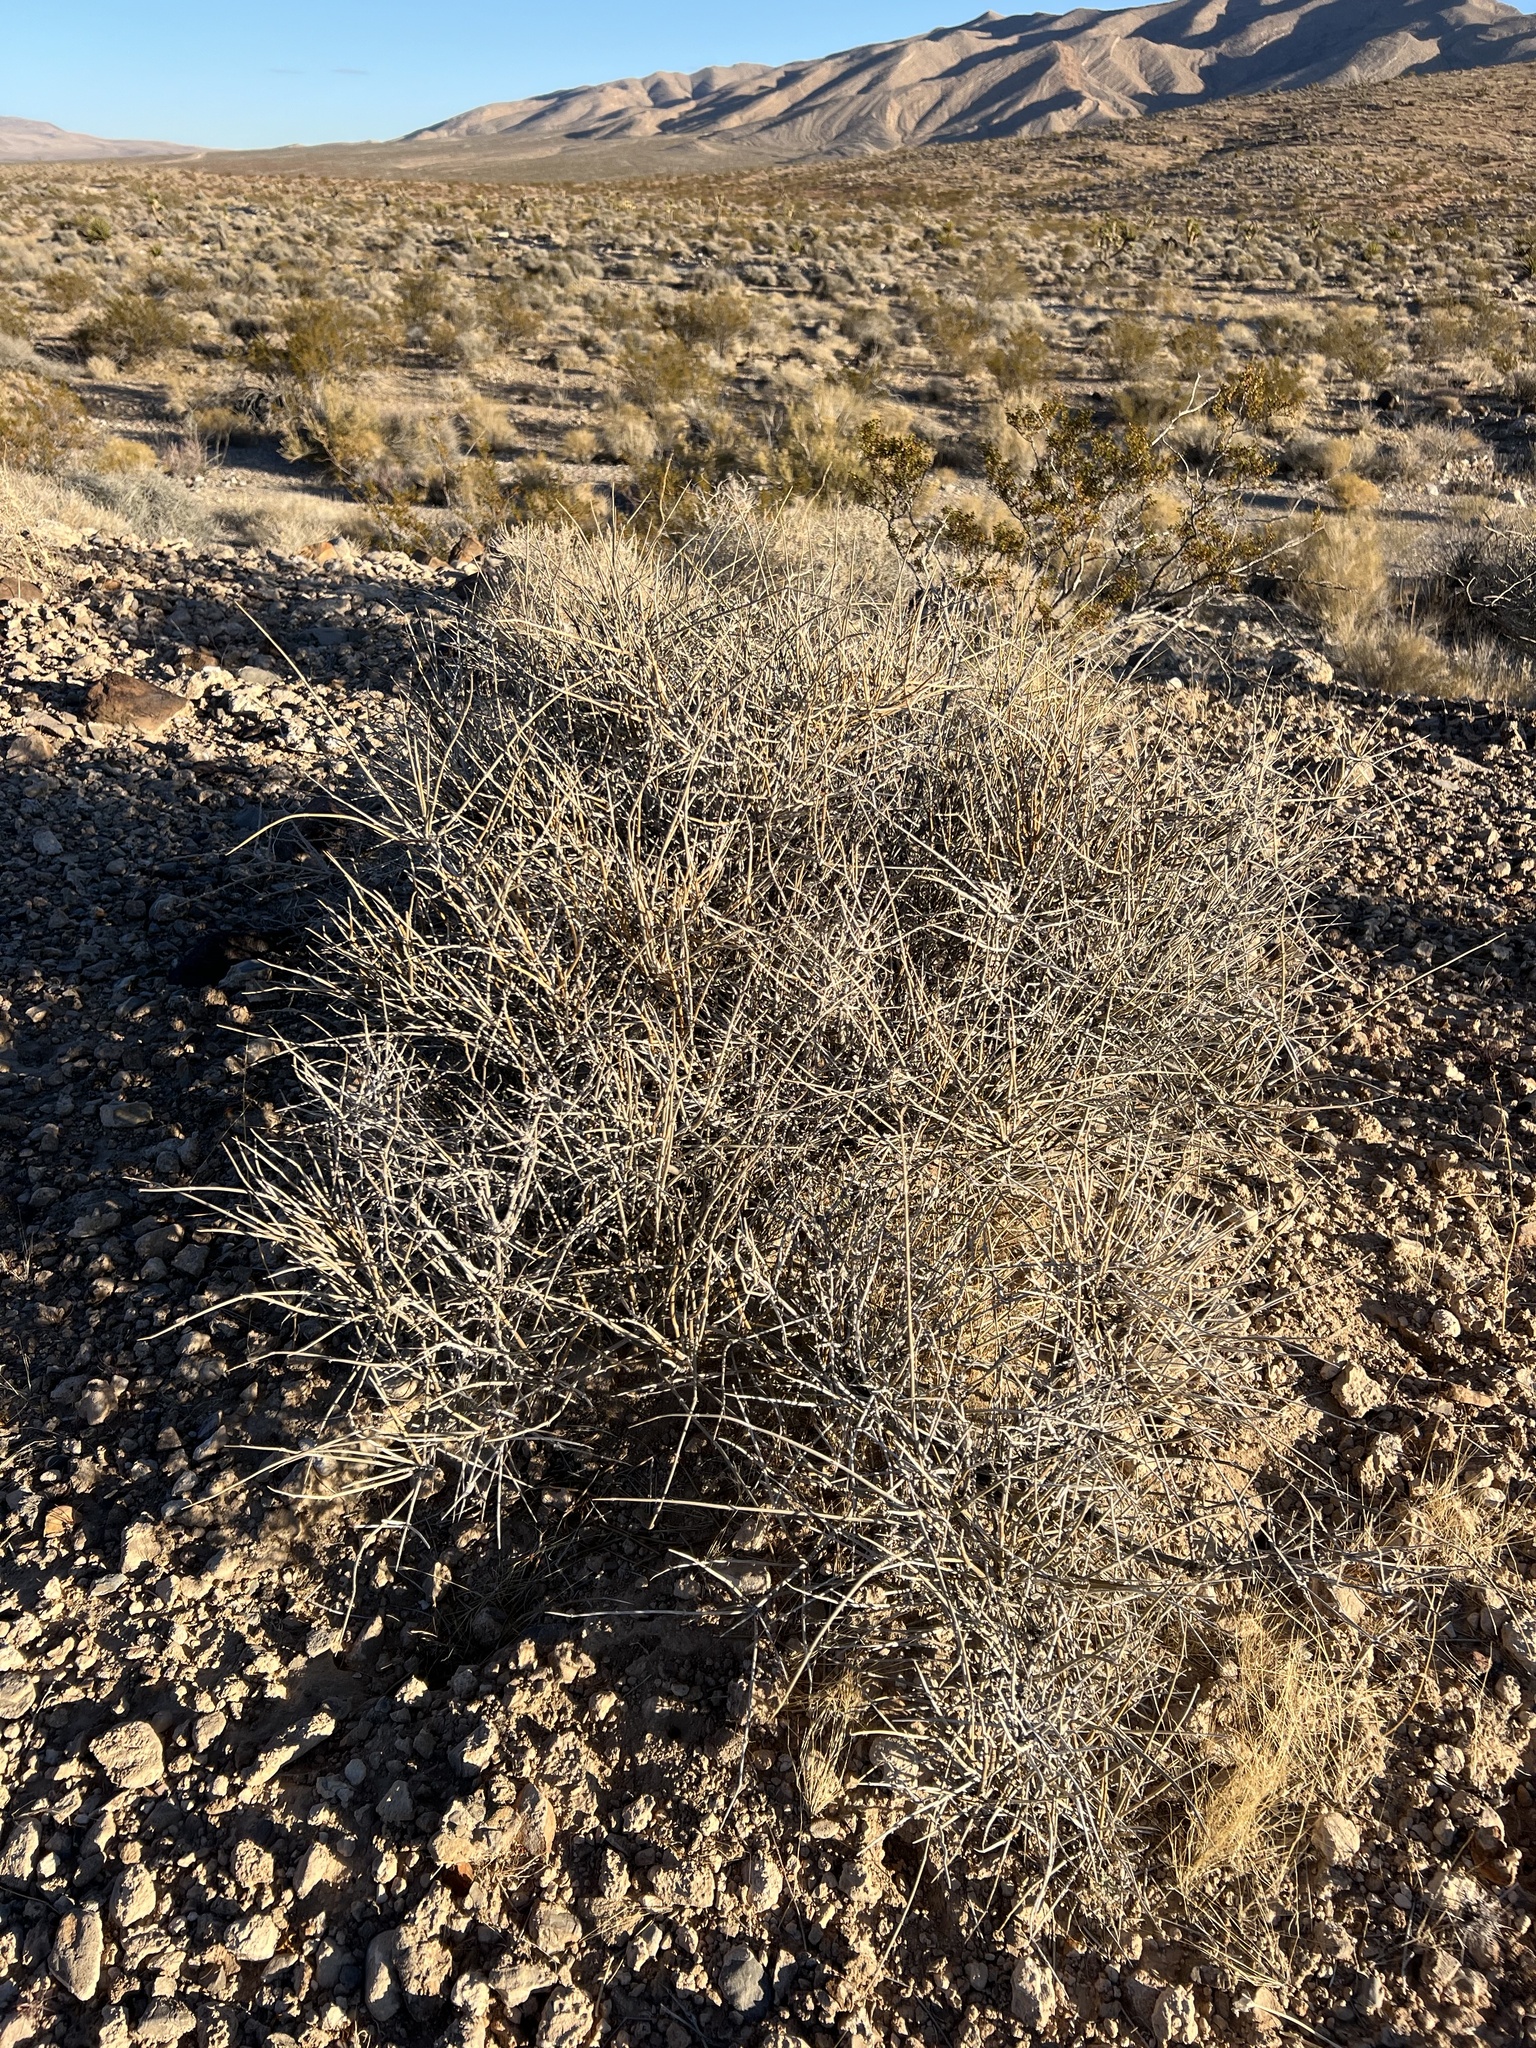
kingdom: Plantae
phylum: Tracheophyta
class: Gnetopsida
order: Ephedrales
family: Ephedraceae
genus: Ephedra
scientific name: Ephedra nevadensis
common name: Gray ephedra
